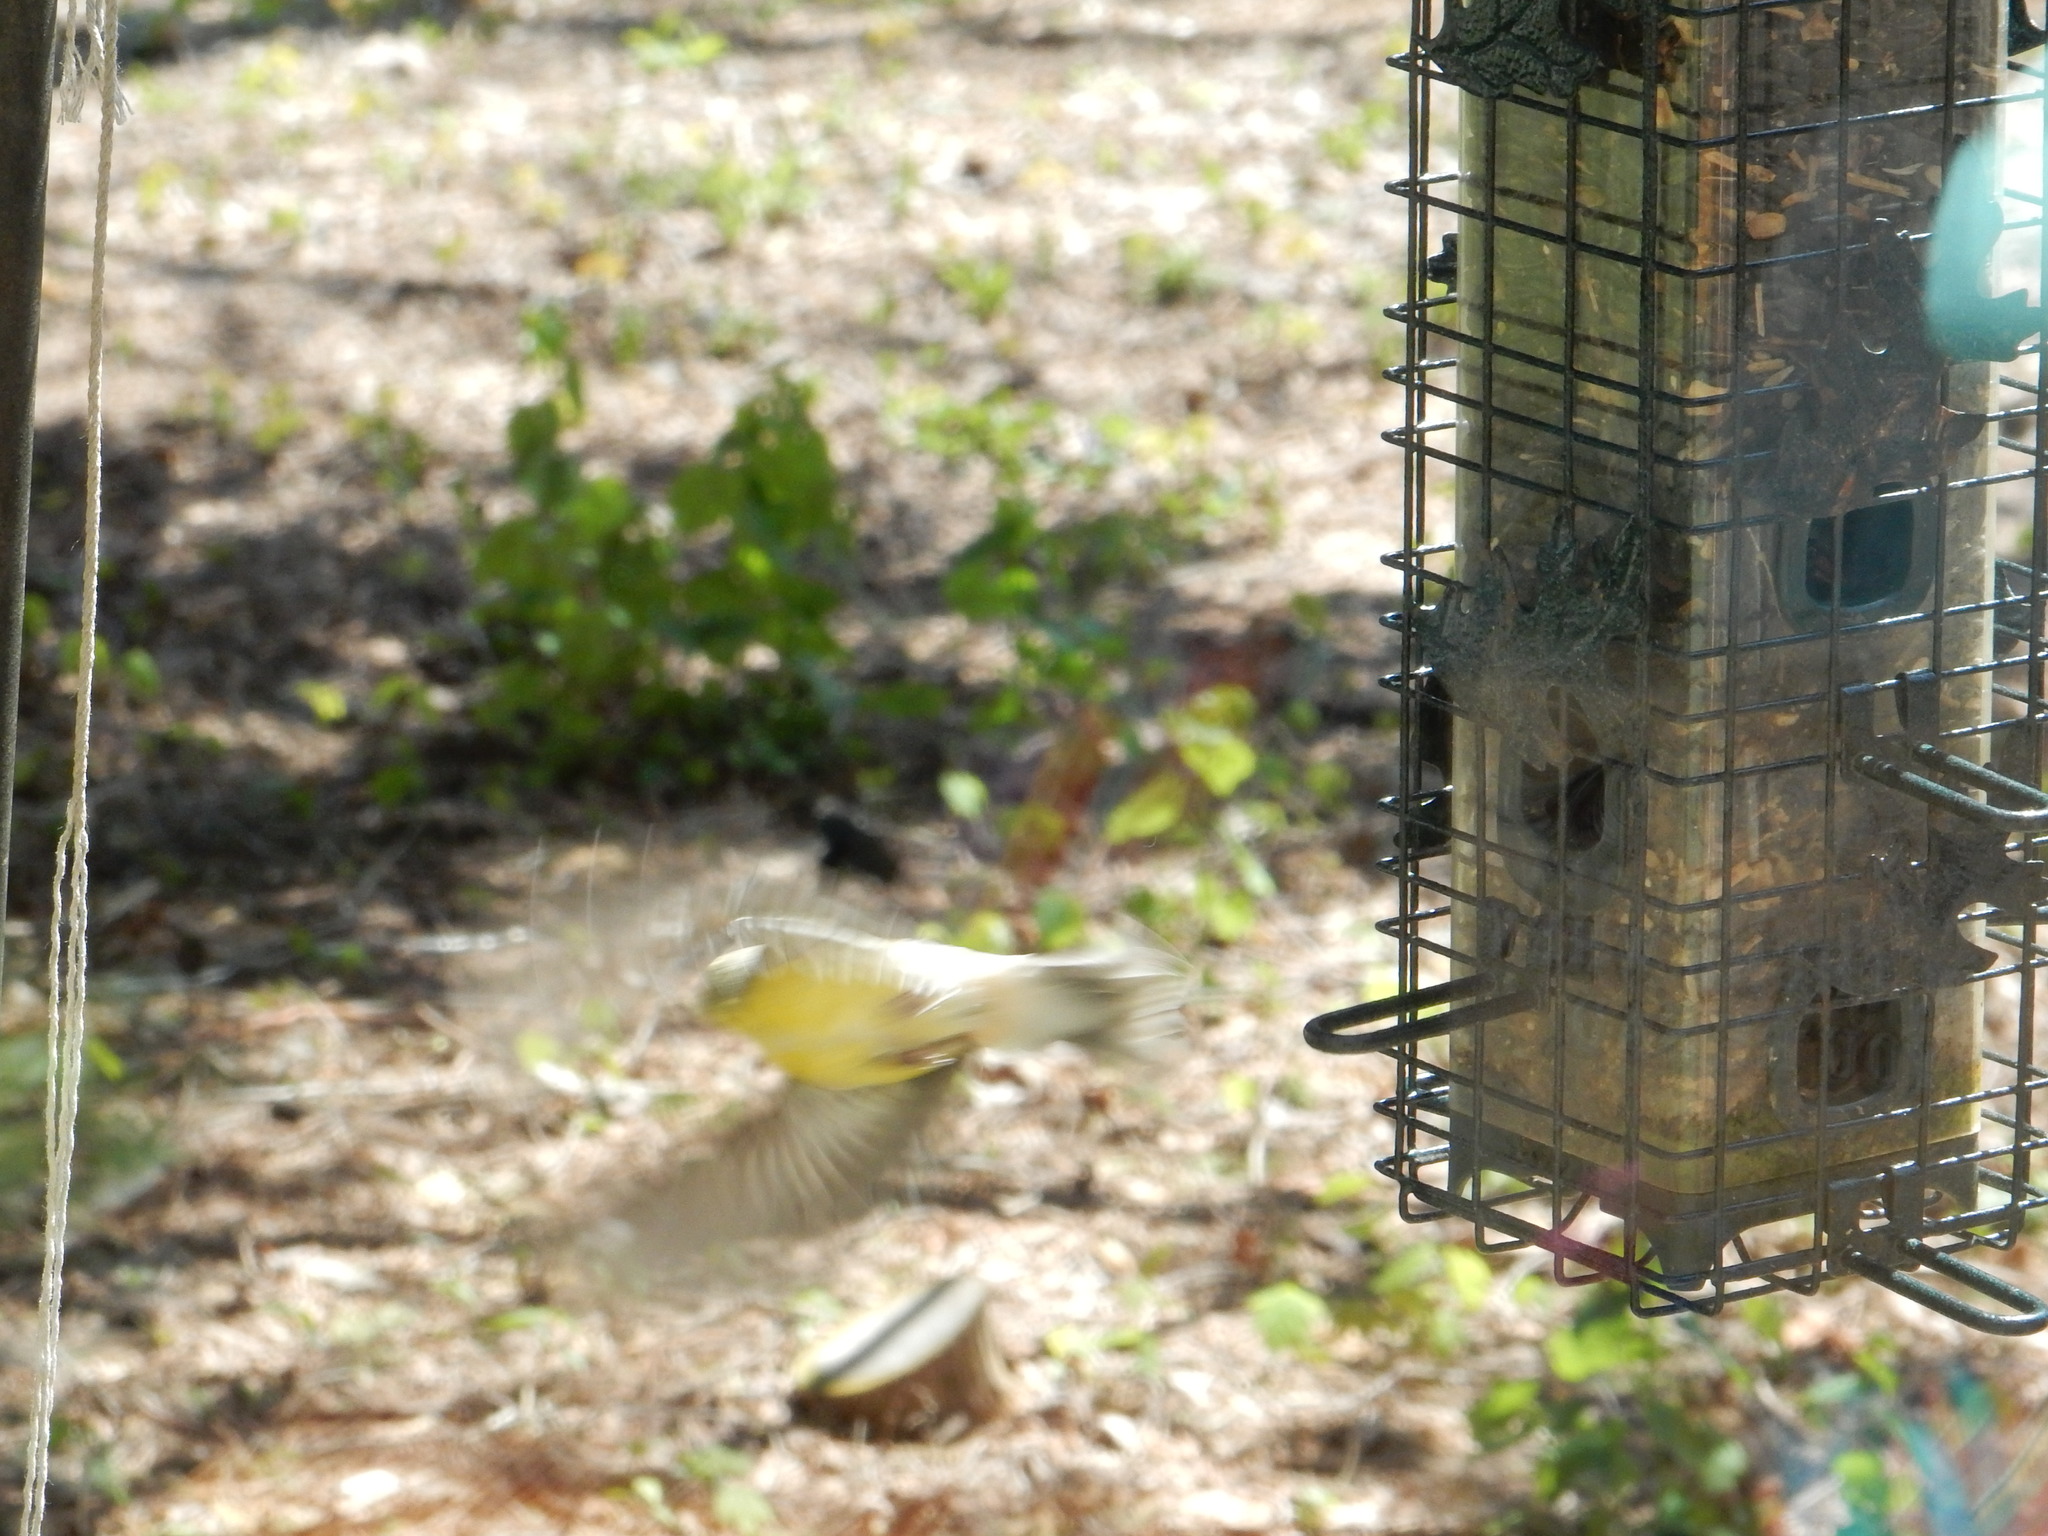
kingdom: Animalia
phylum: Chordata
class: Aves
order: Passeriformes
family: Fringillidae
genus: Spinus
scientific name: Spinus tristis
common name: American goldfinch
